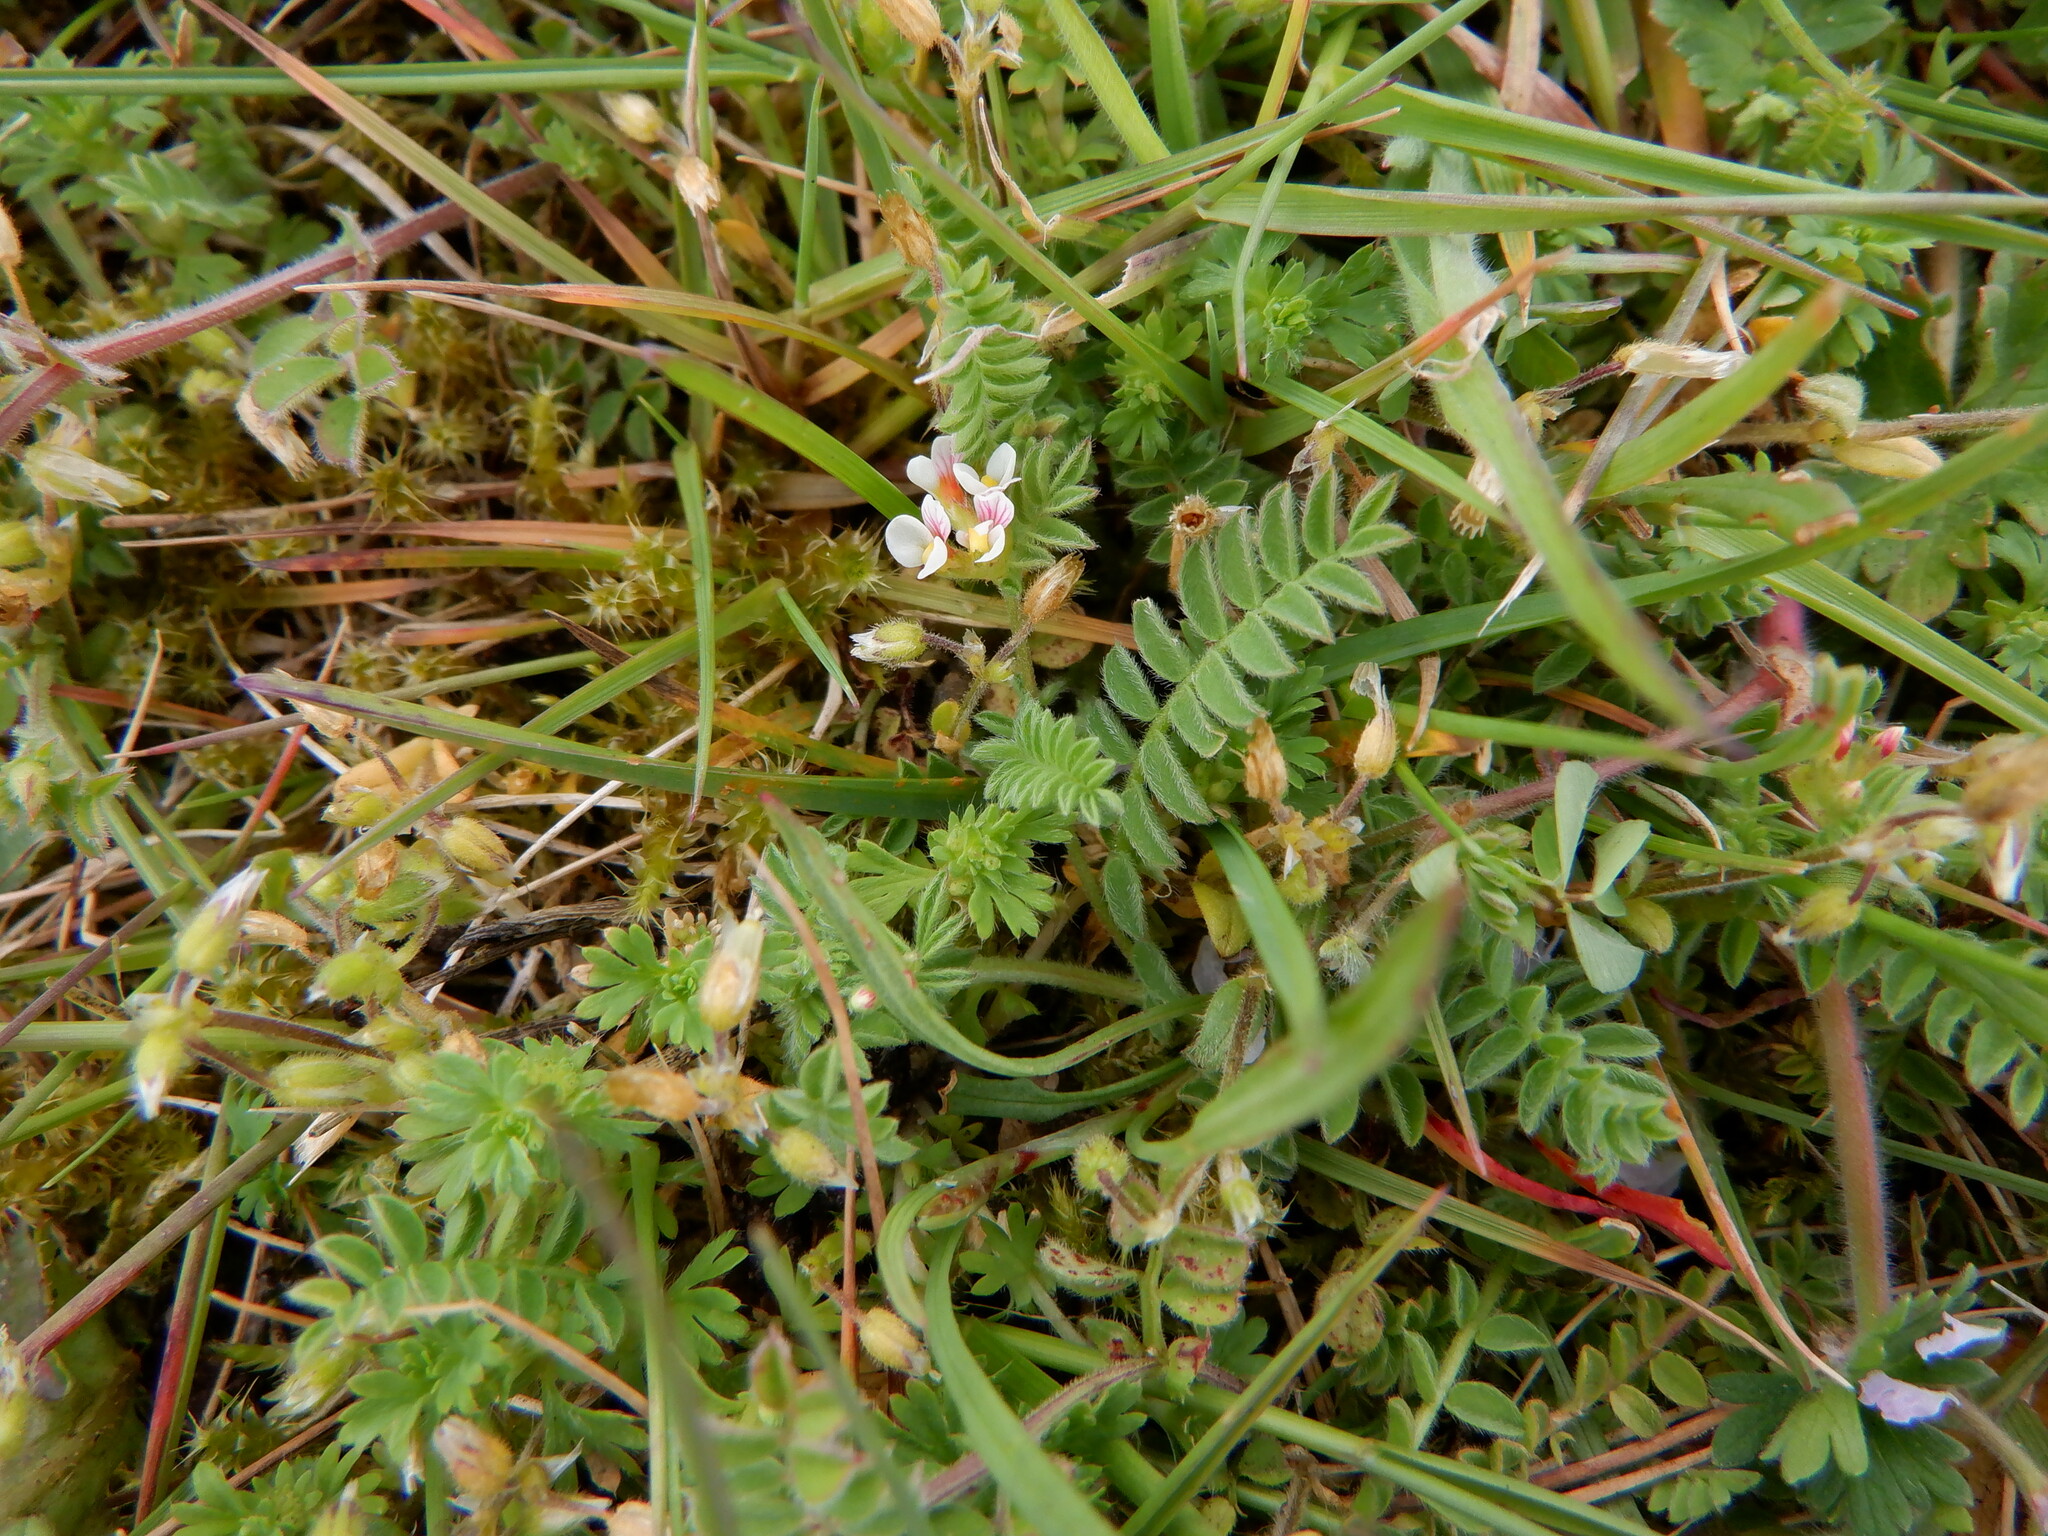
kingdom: Plantae
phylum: Tracheophyta
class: Magnoliopsida
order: Fabales
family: Fabaceae
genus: Ornithopus
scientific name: Ornithopus perpusillus
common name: Bird's-foot
